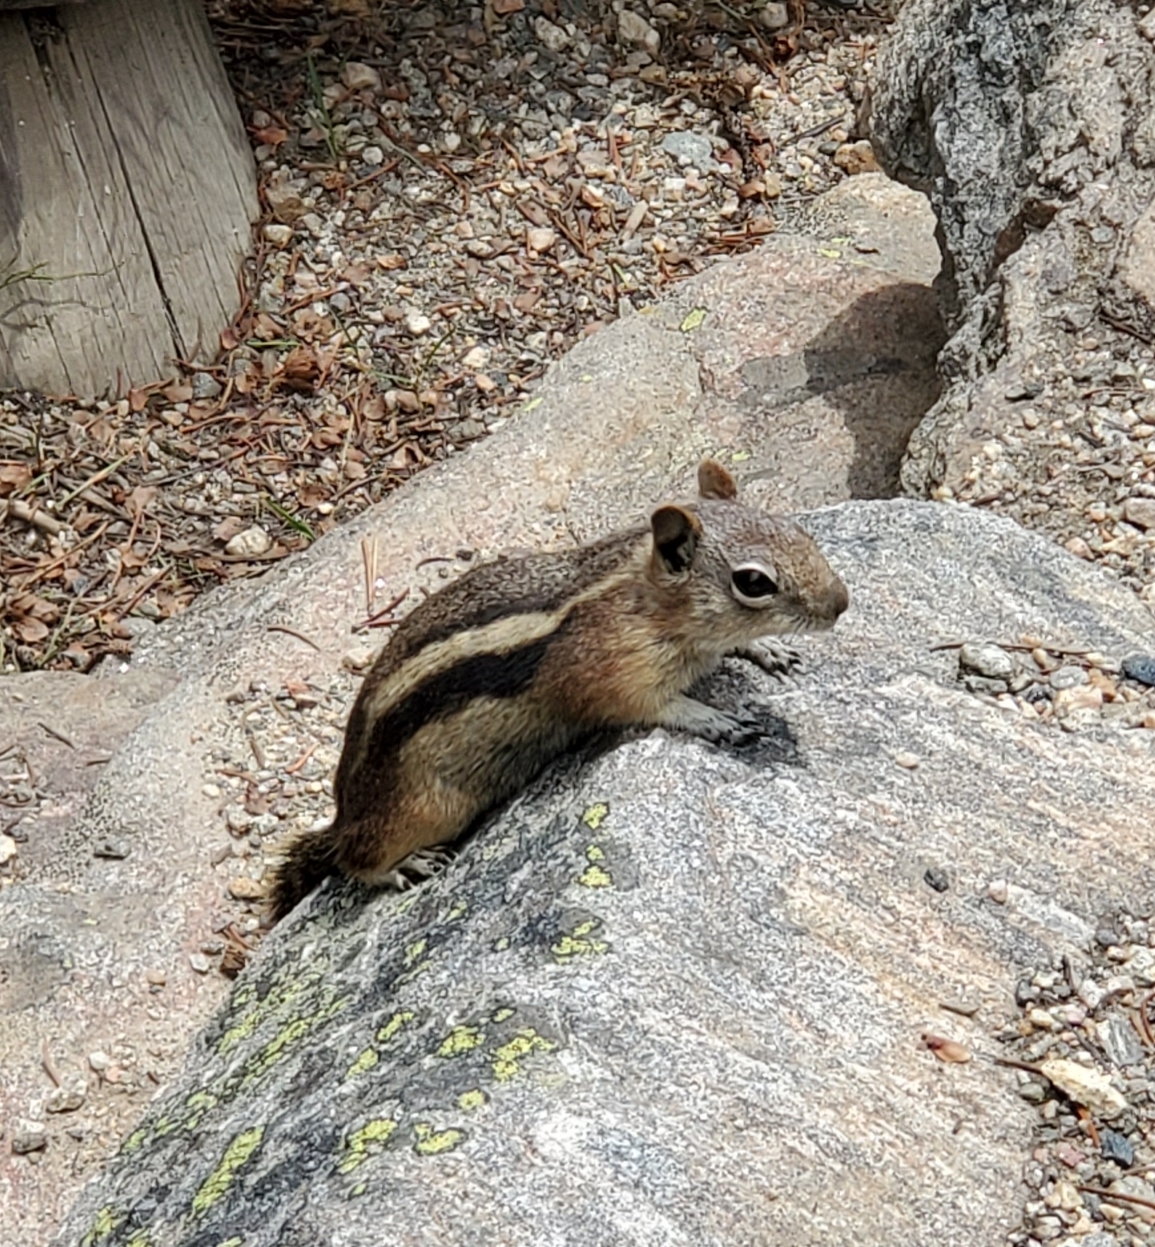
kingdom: Animalia
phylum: Chordata
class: Mammalia
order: Rodentia
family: Sciuridae
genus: Callospermophilus
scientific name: Callospermophilus lateralis
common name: Golden-mantled ground squirrel
